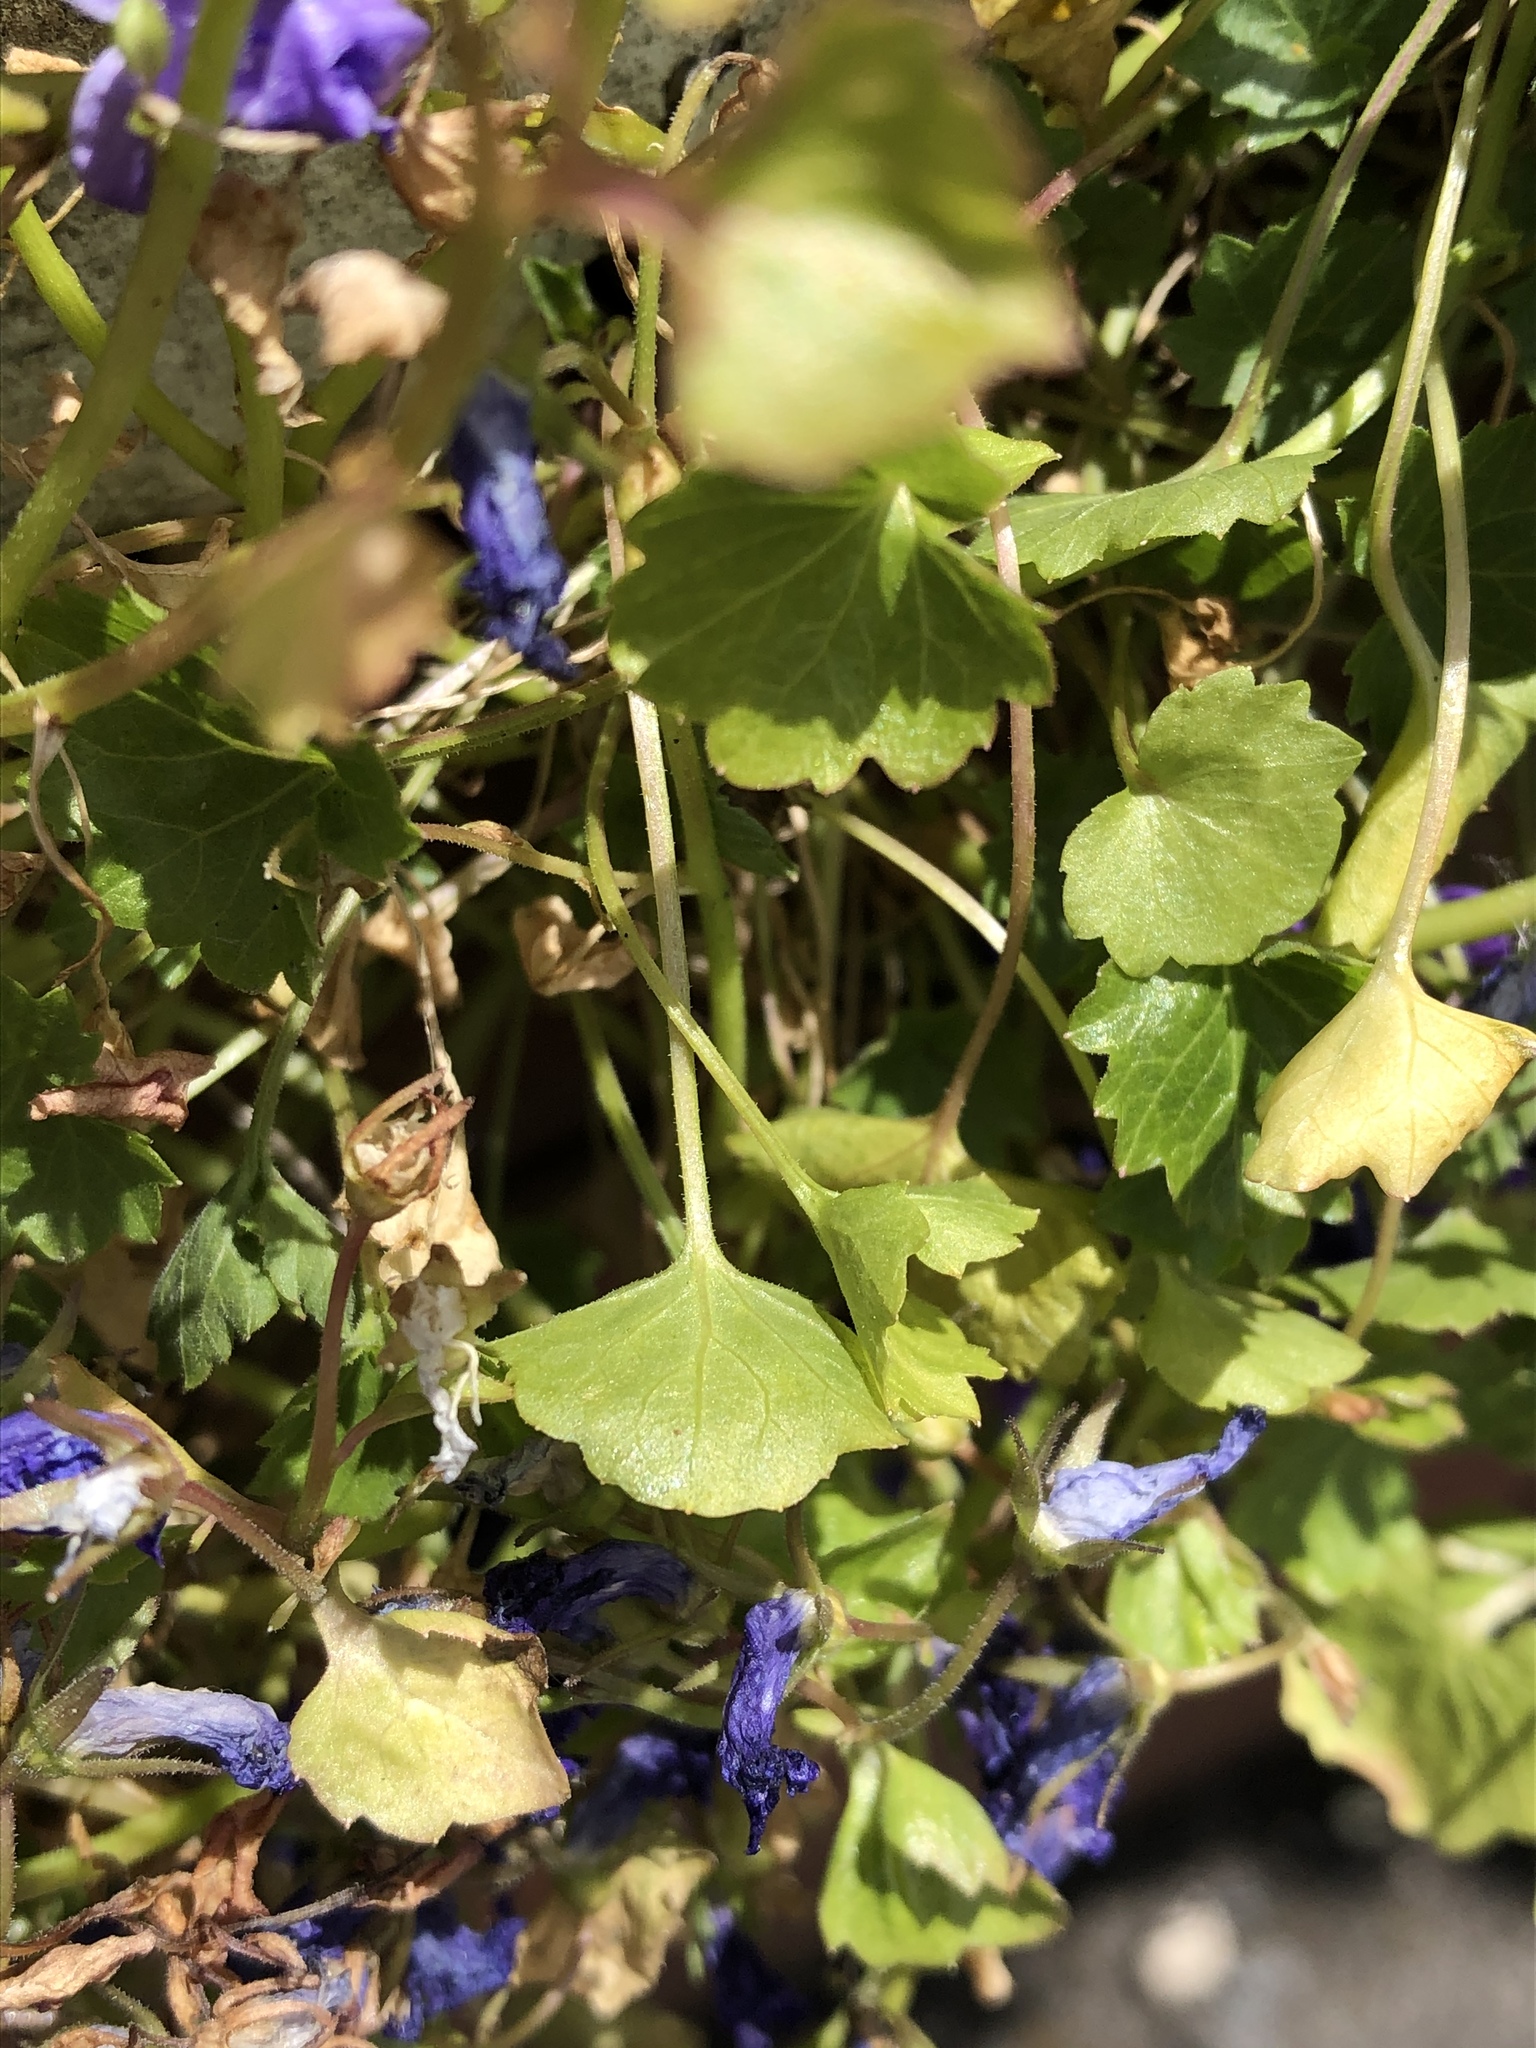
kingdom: Plantae
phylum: Tracheophyta
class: Magnoliopsida
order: Asterales
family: Campanulaceae
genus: Campanula
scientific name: Campanula portenschlagiana
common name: Adria bellflower
